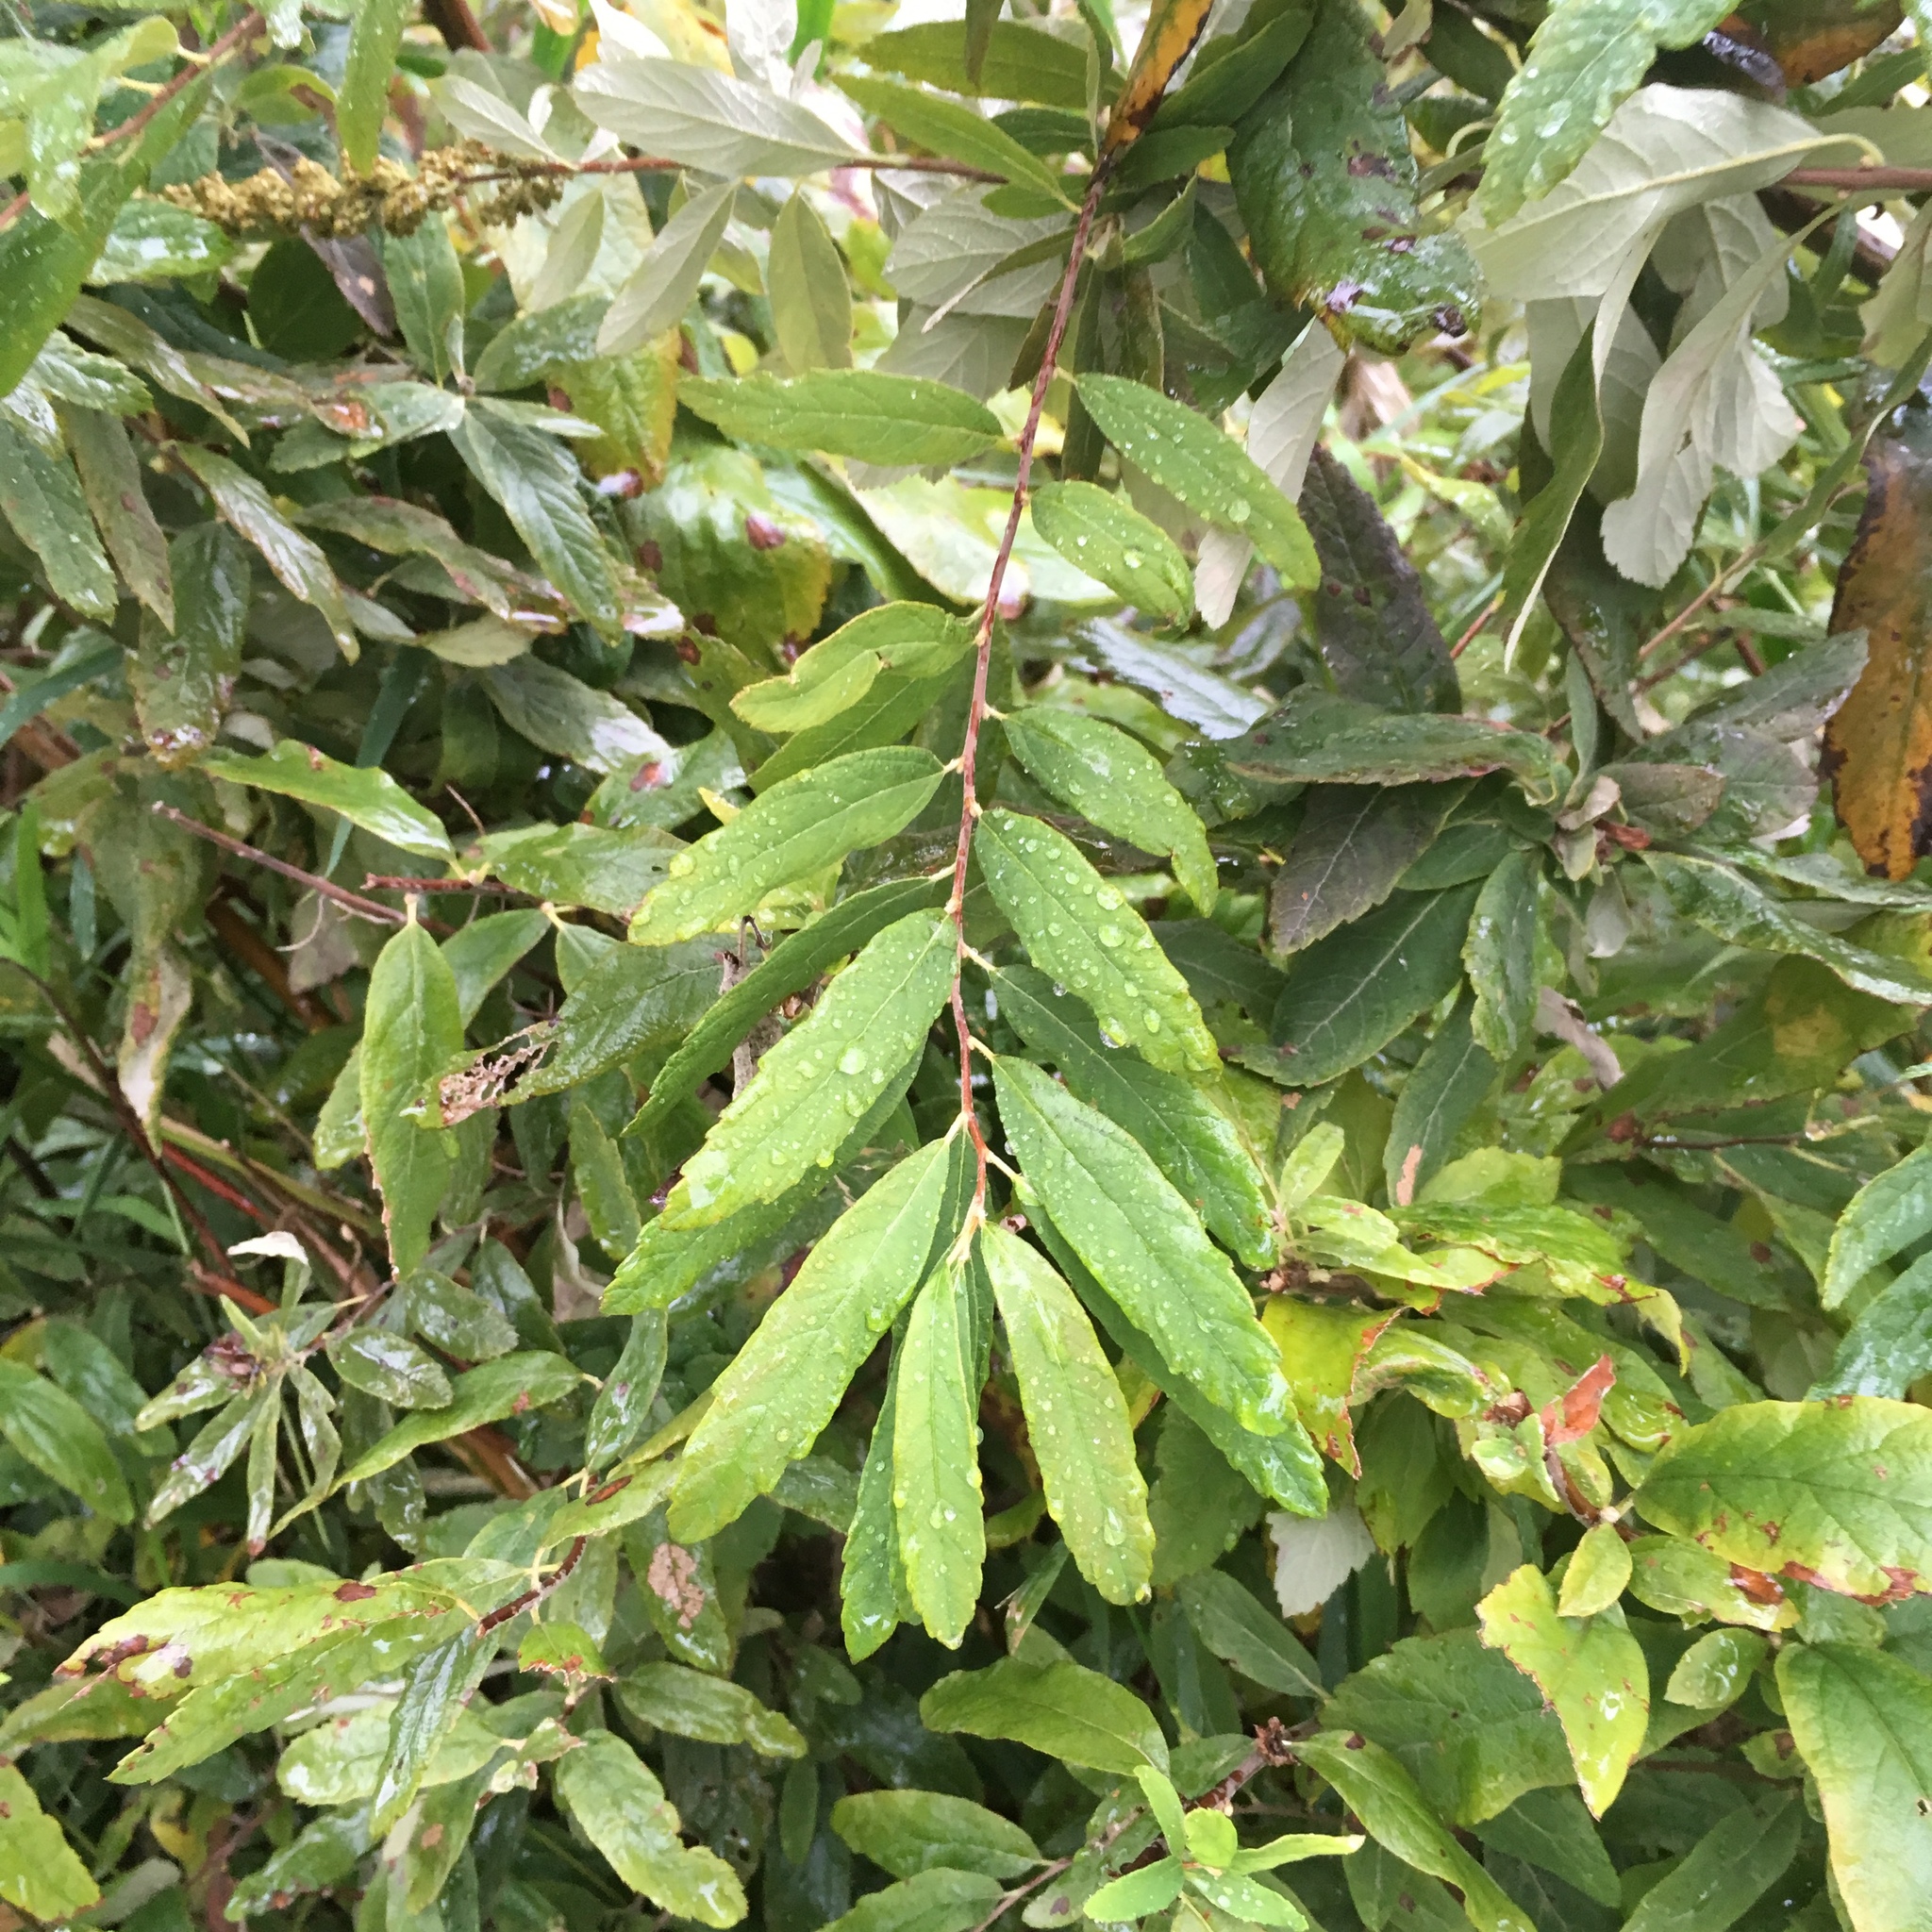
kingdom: Plantae
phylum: Tracheophyta
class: Magnoliopsida
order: Rosales
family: Rosaceae
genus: Spiraea
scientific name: Spiraea douglasii
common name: Steeplebush
